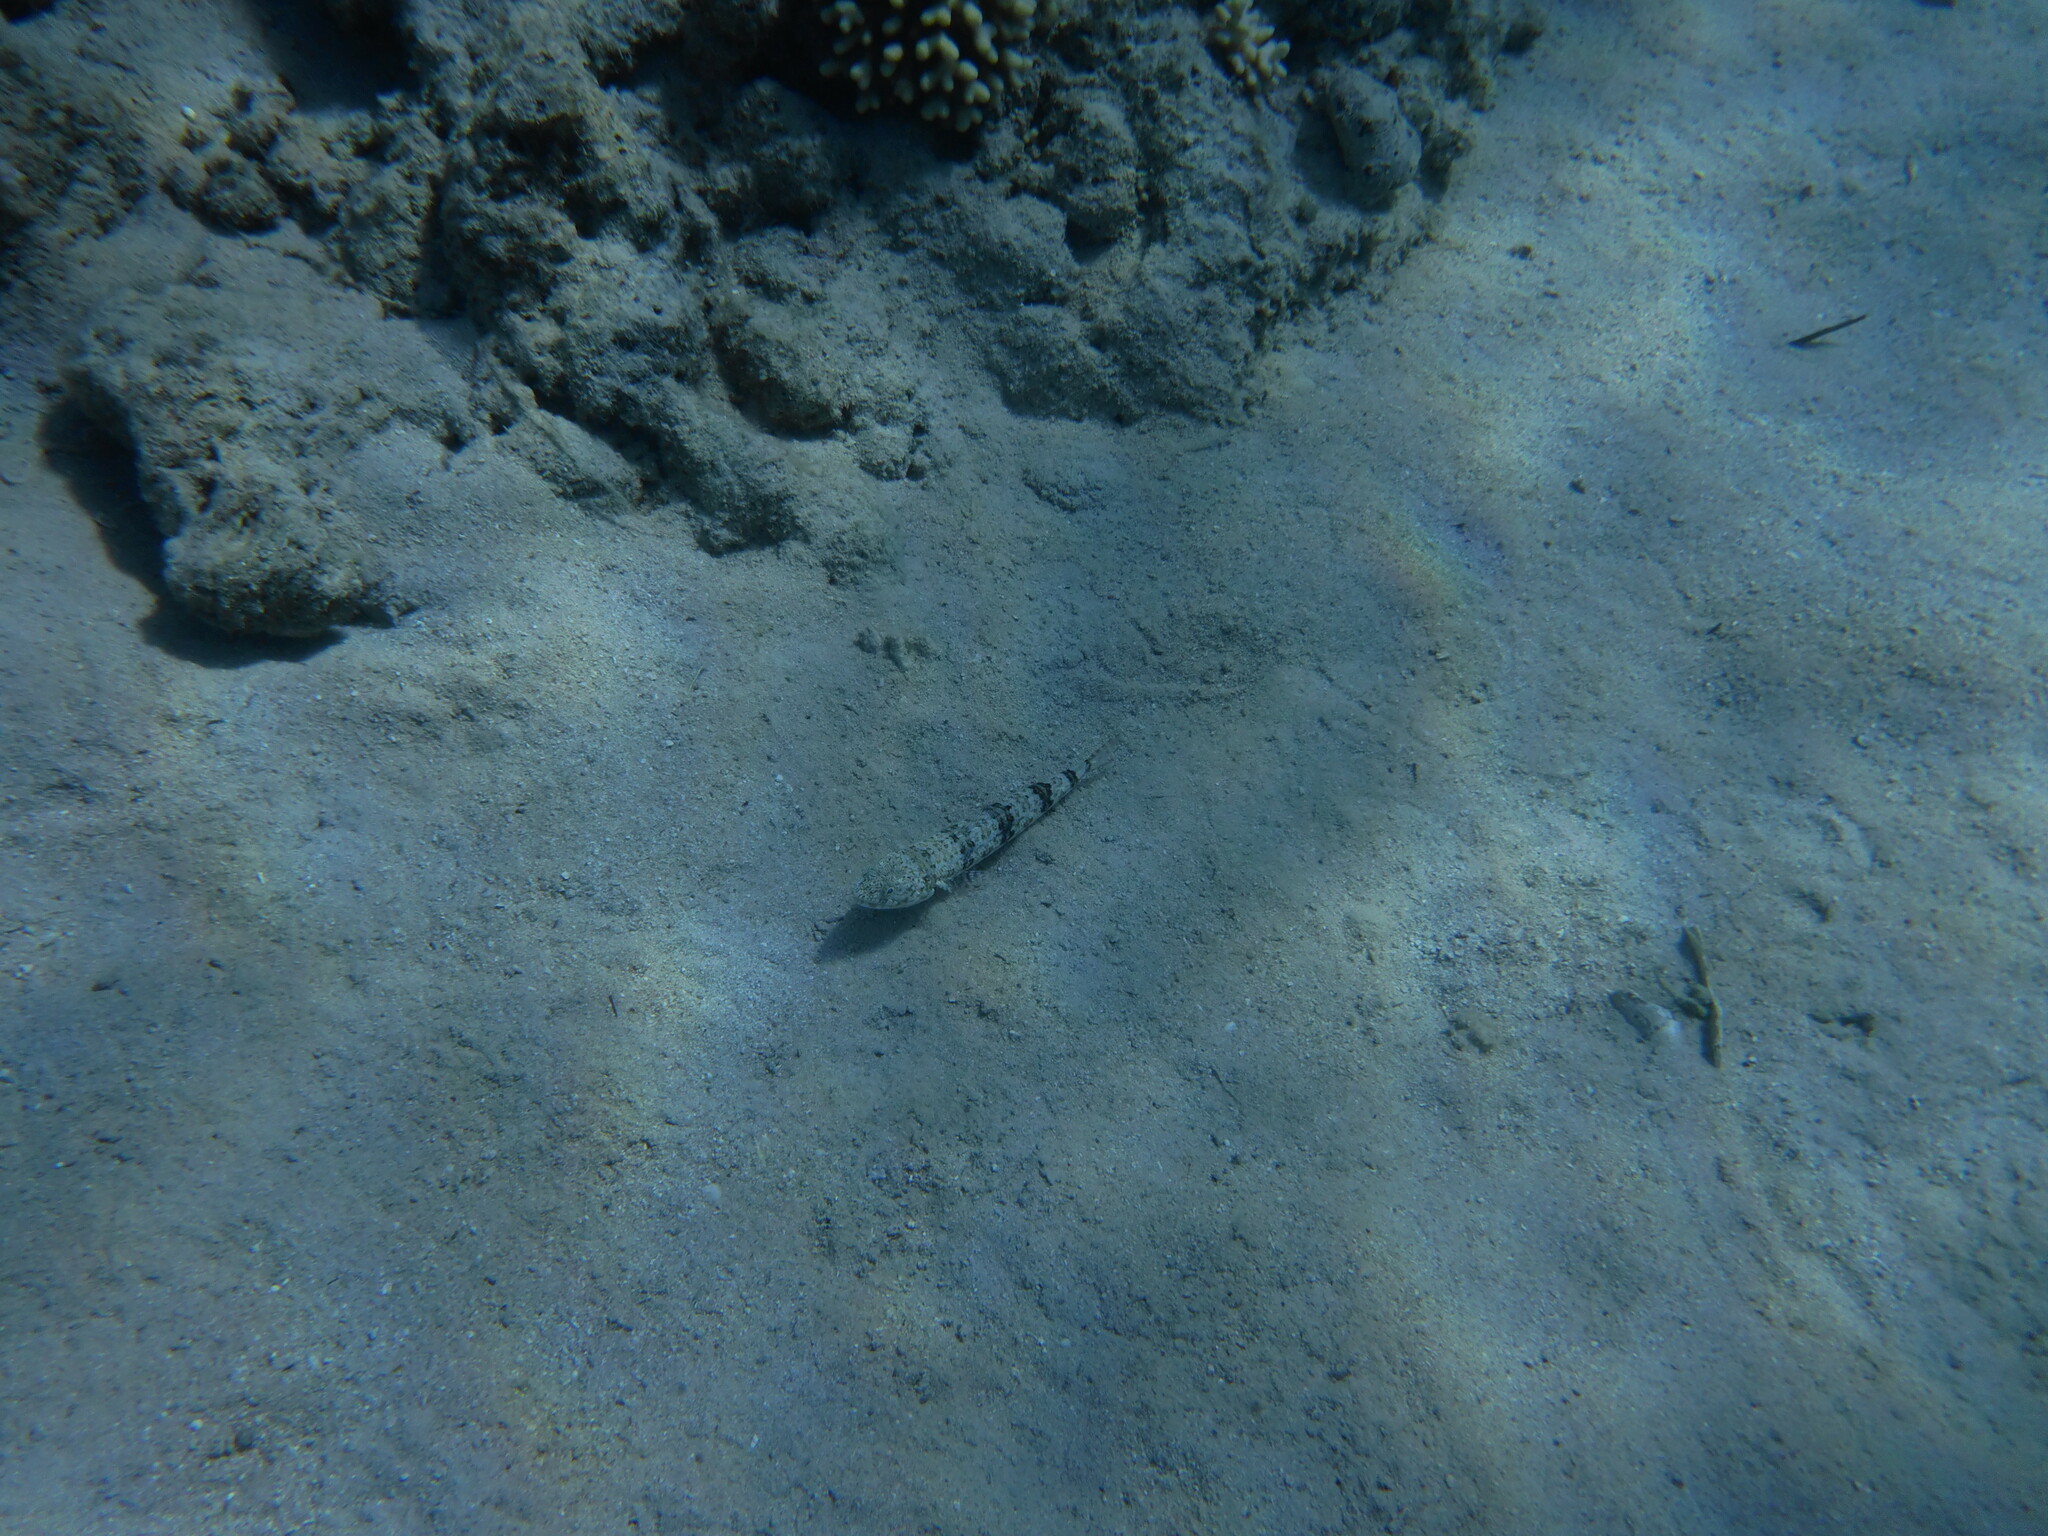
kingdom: Animalia
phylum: Chordata
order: Aulopiformes
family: Synodontidae
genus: Synodus
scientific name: Synodus variegatus
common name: Variegated lizardfish
